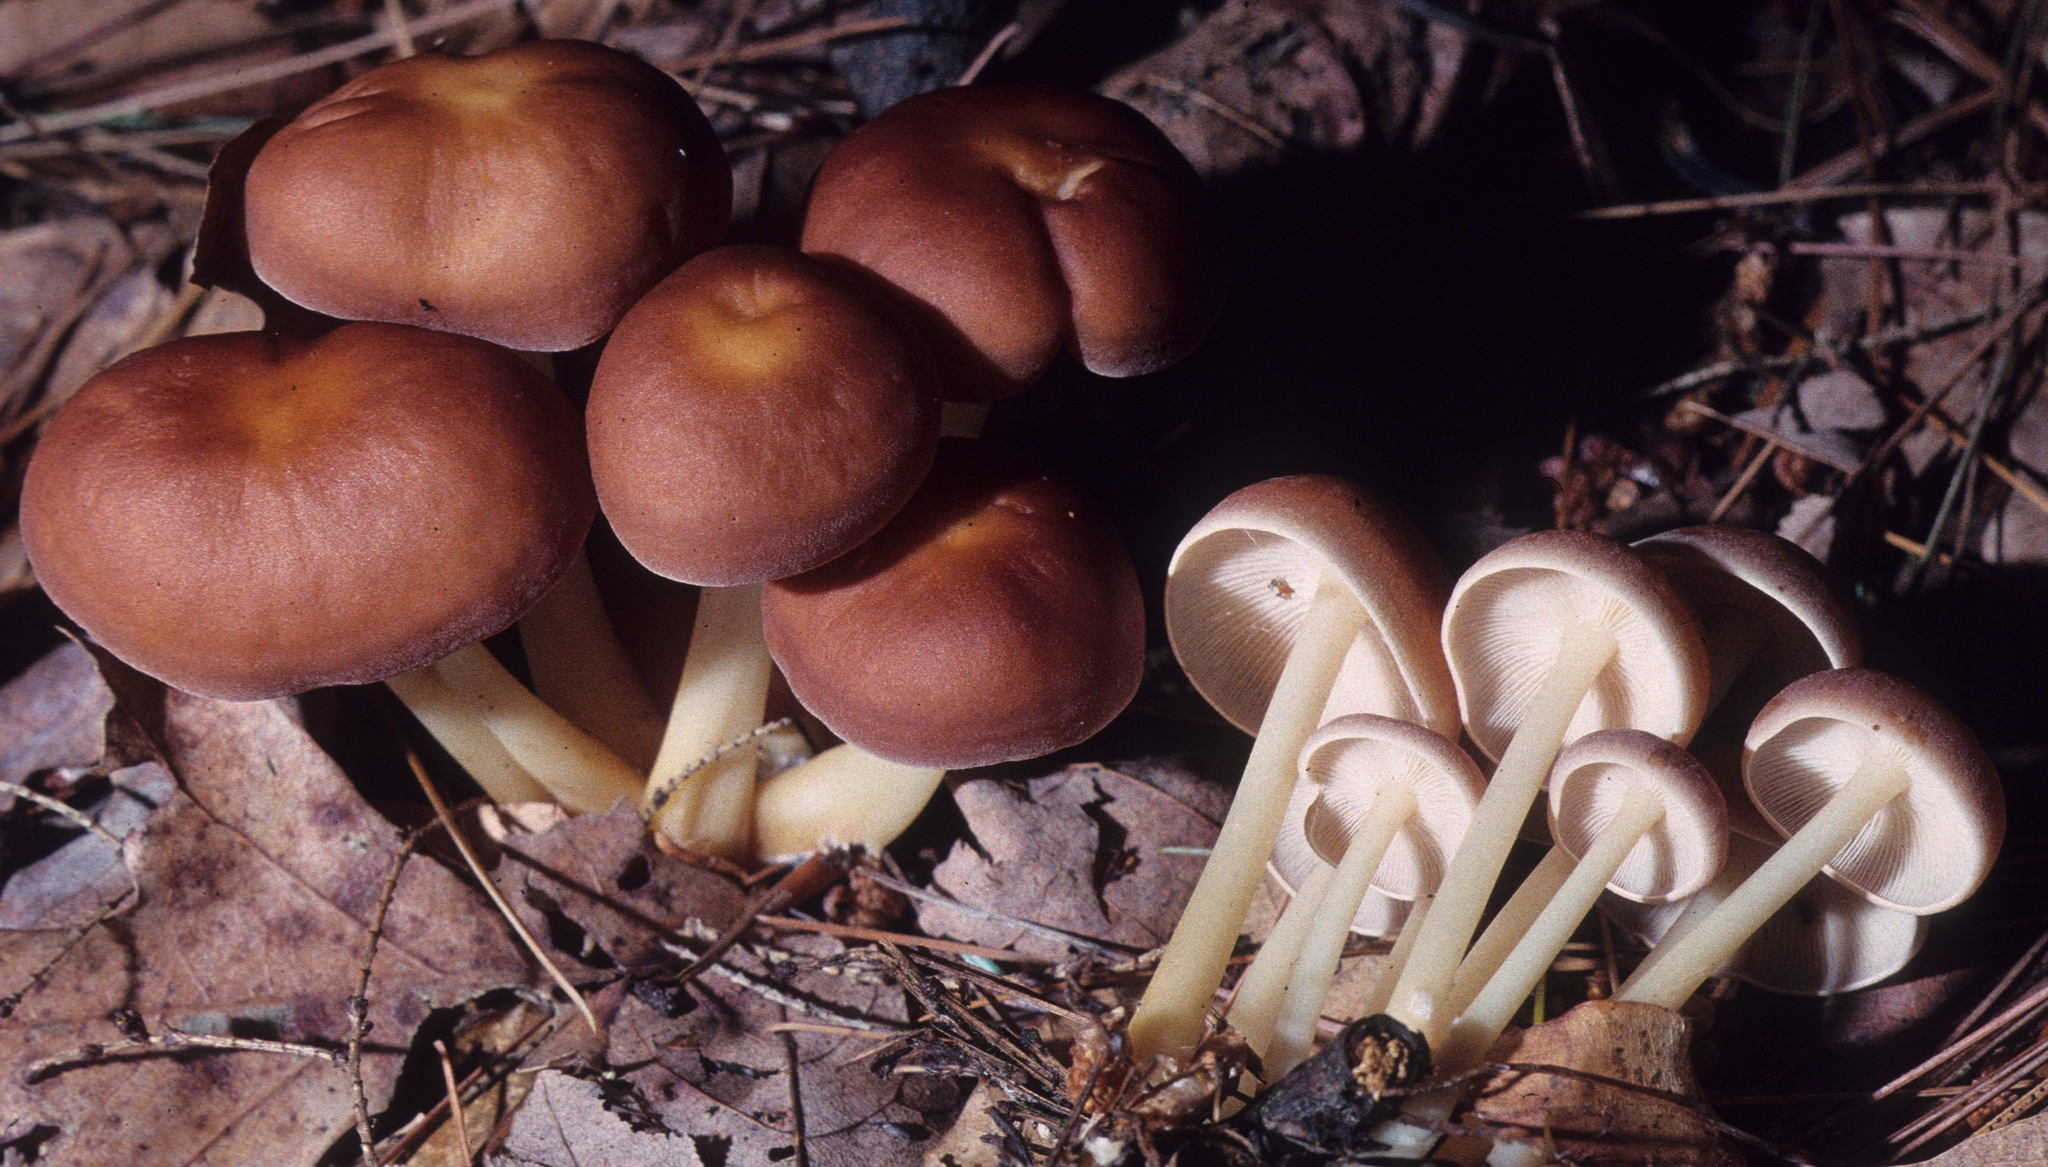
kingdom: Fungi
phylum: Basidiomycota
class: Agaricomycetes
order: Agaricales
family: Omphalotaceae
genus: Gymnopus
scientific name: Gymnopus dryophilus
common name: Penny top
